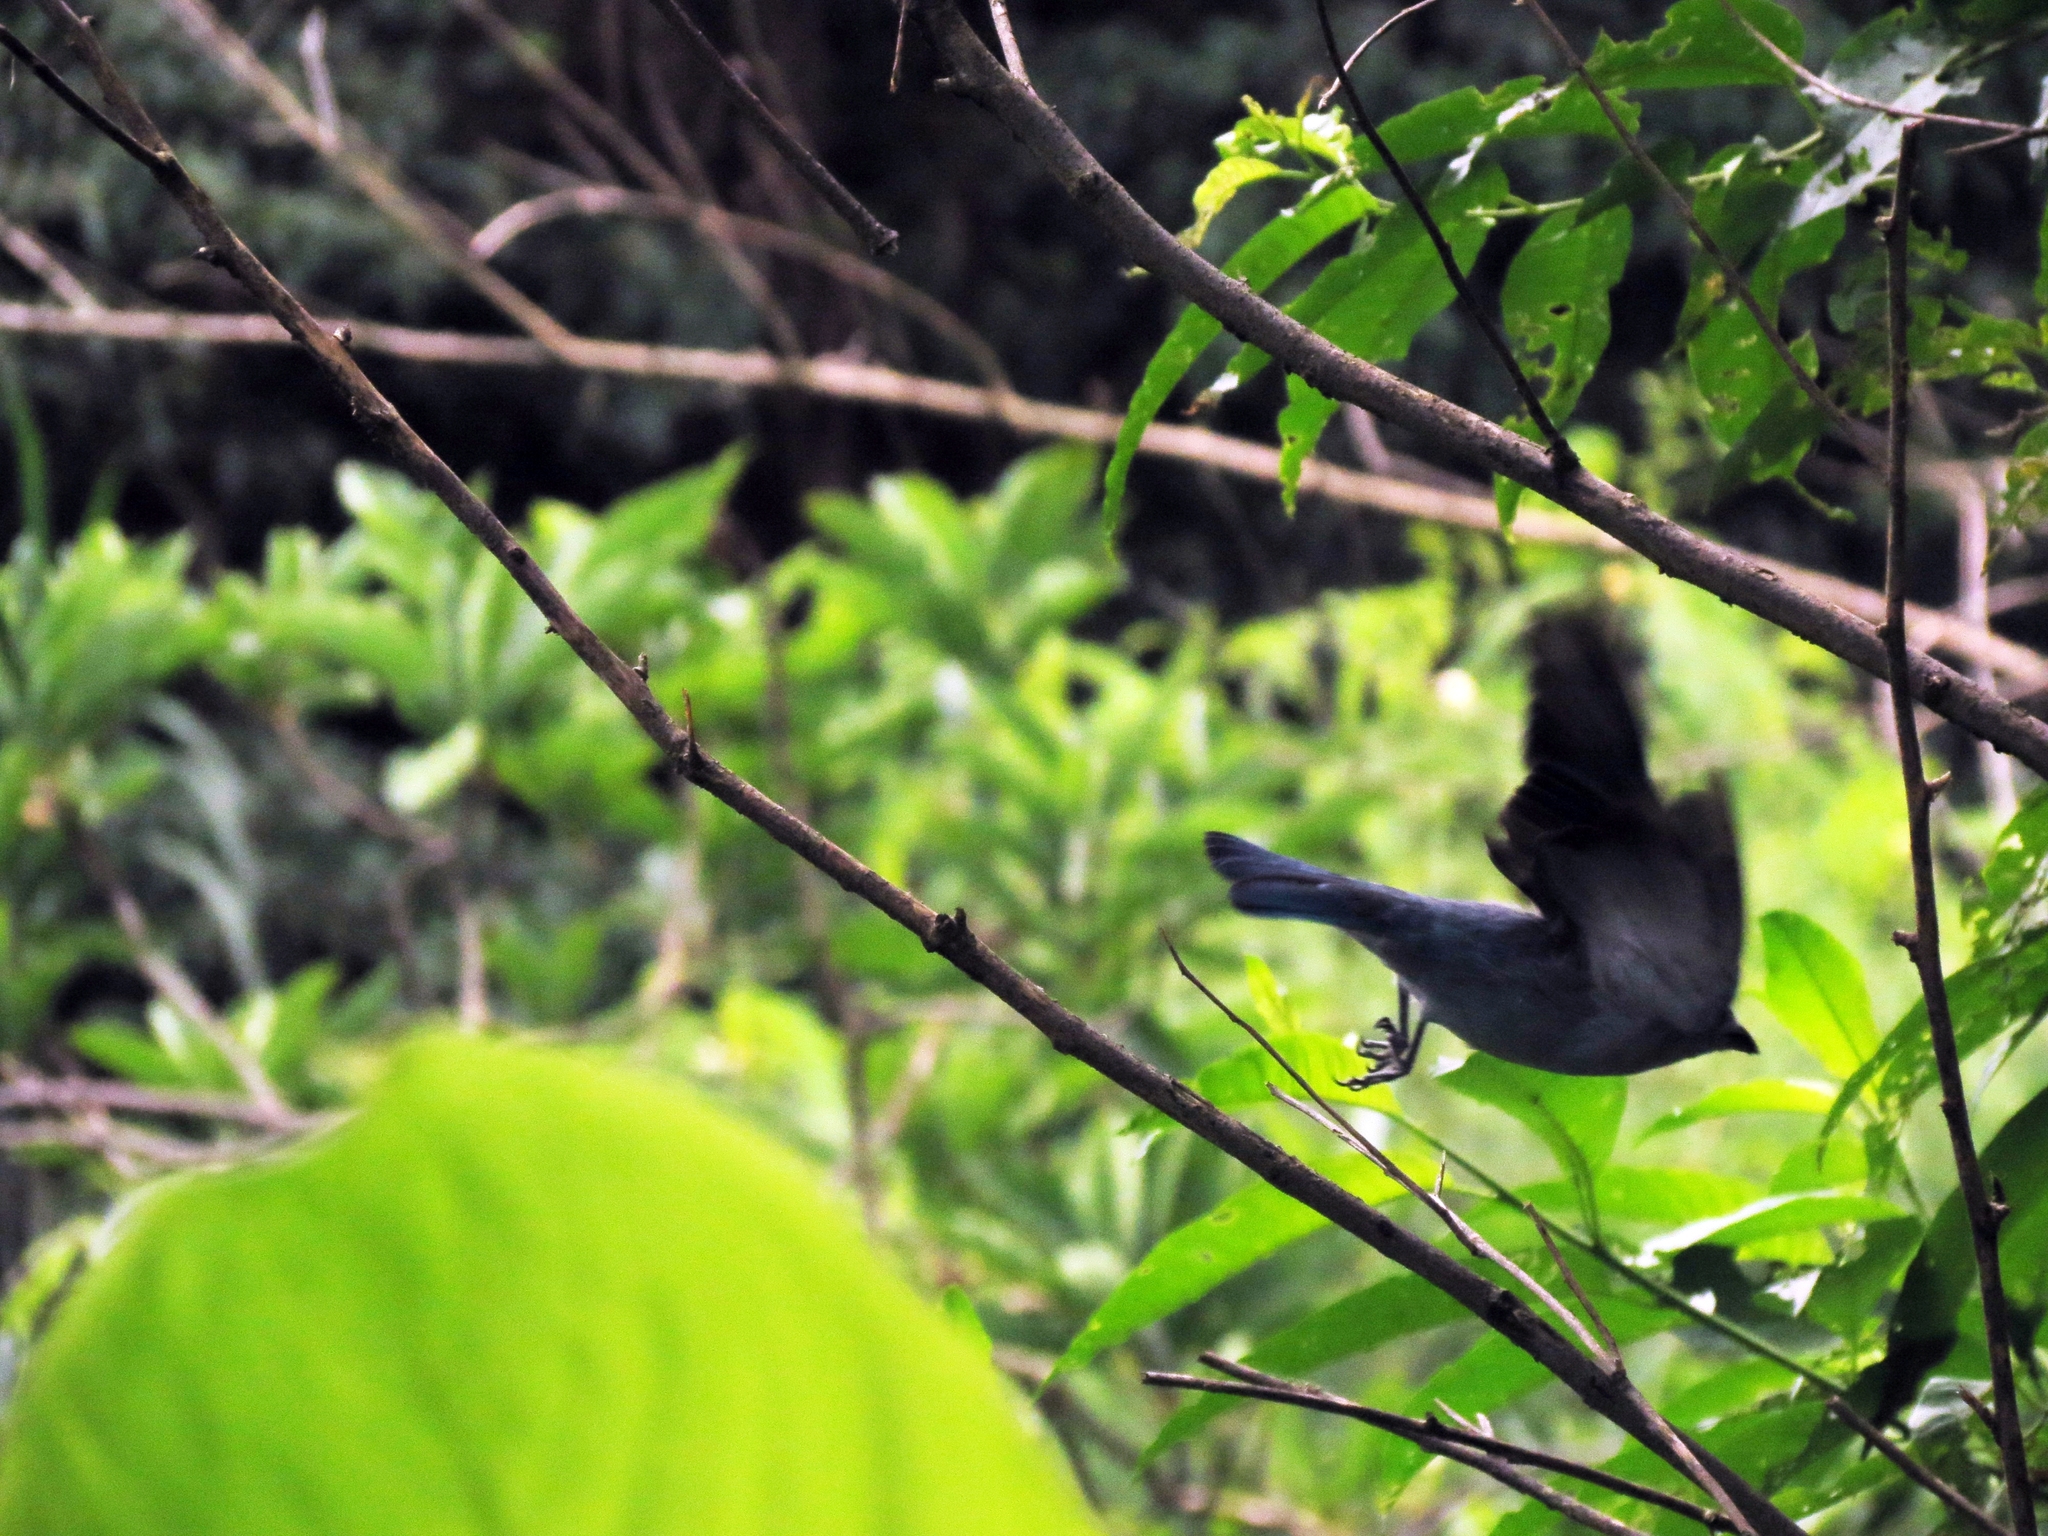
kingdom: Animalia
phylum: Chordata
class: Aves
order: Passeriformes
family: Thraupidae
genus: Thraupis
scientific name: Thraupis episcopus
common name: Blue-grey tanager
